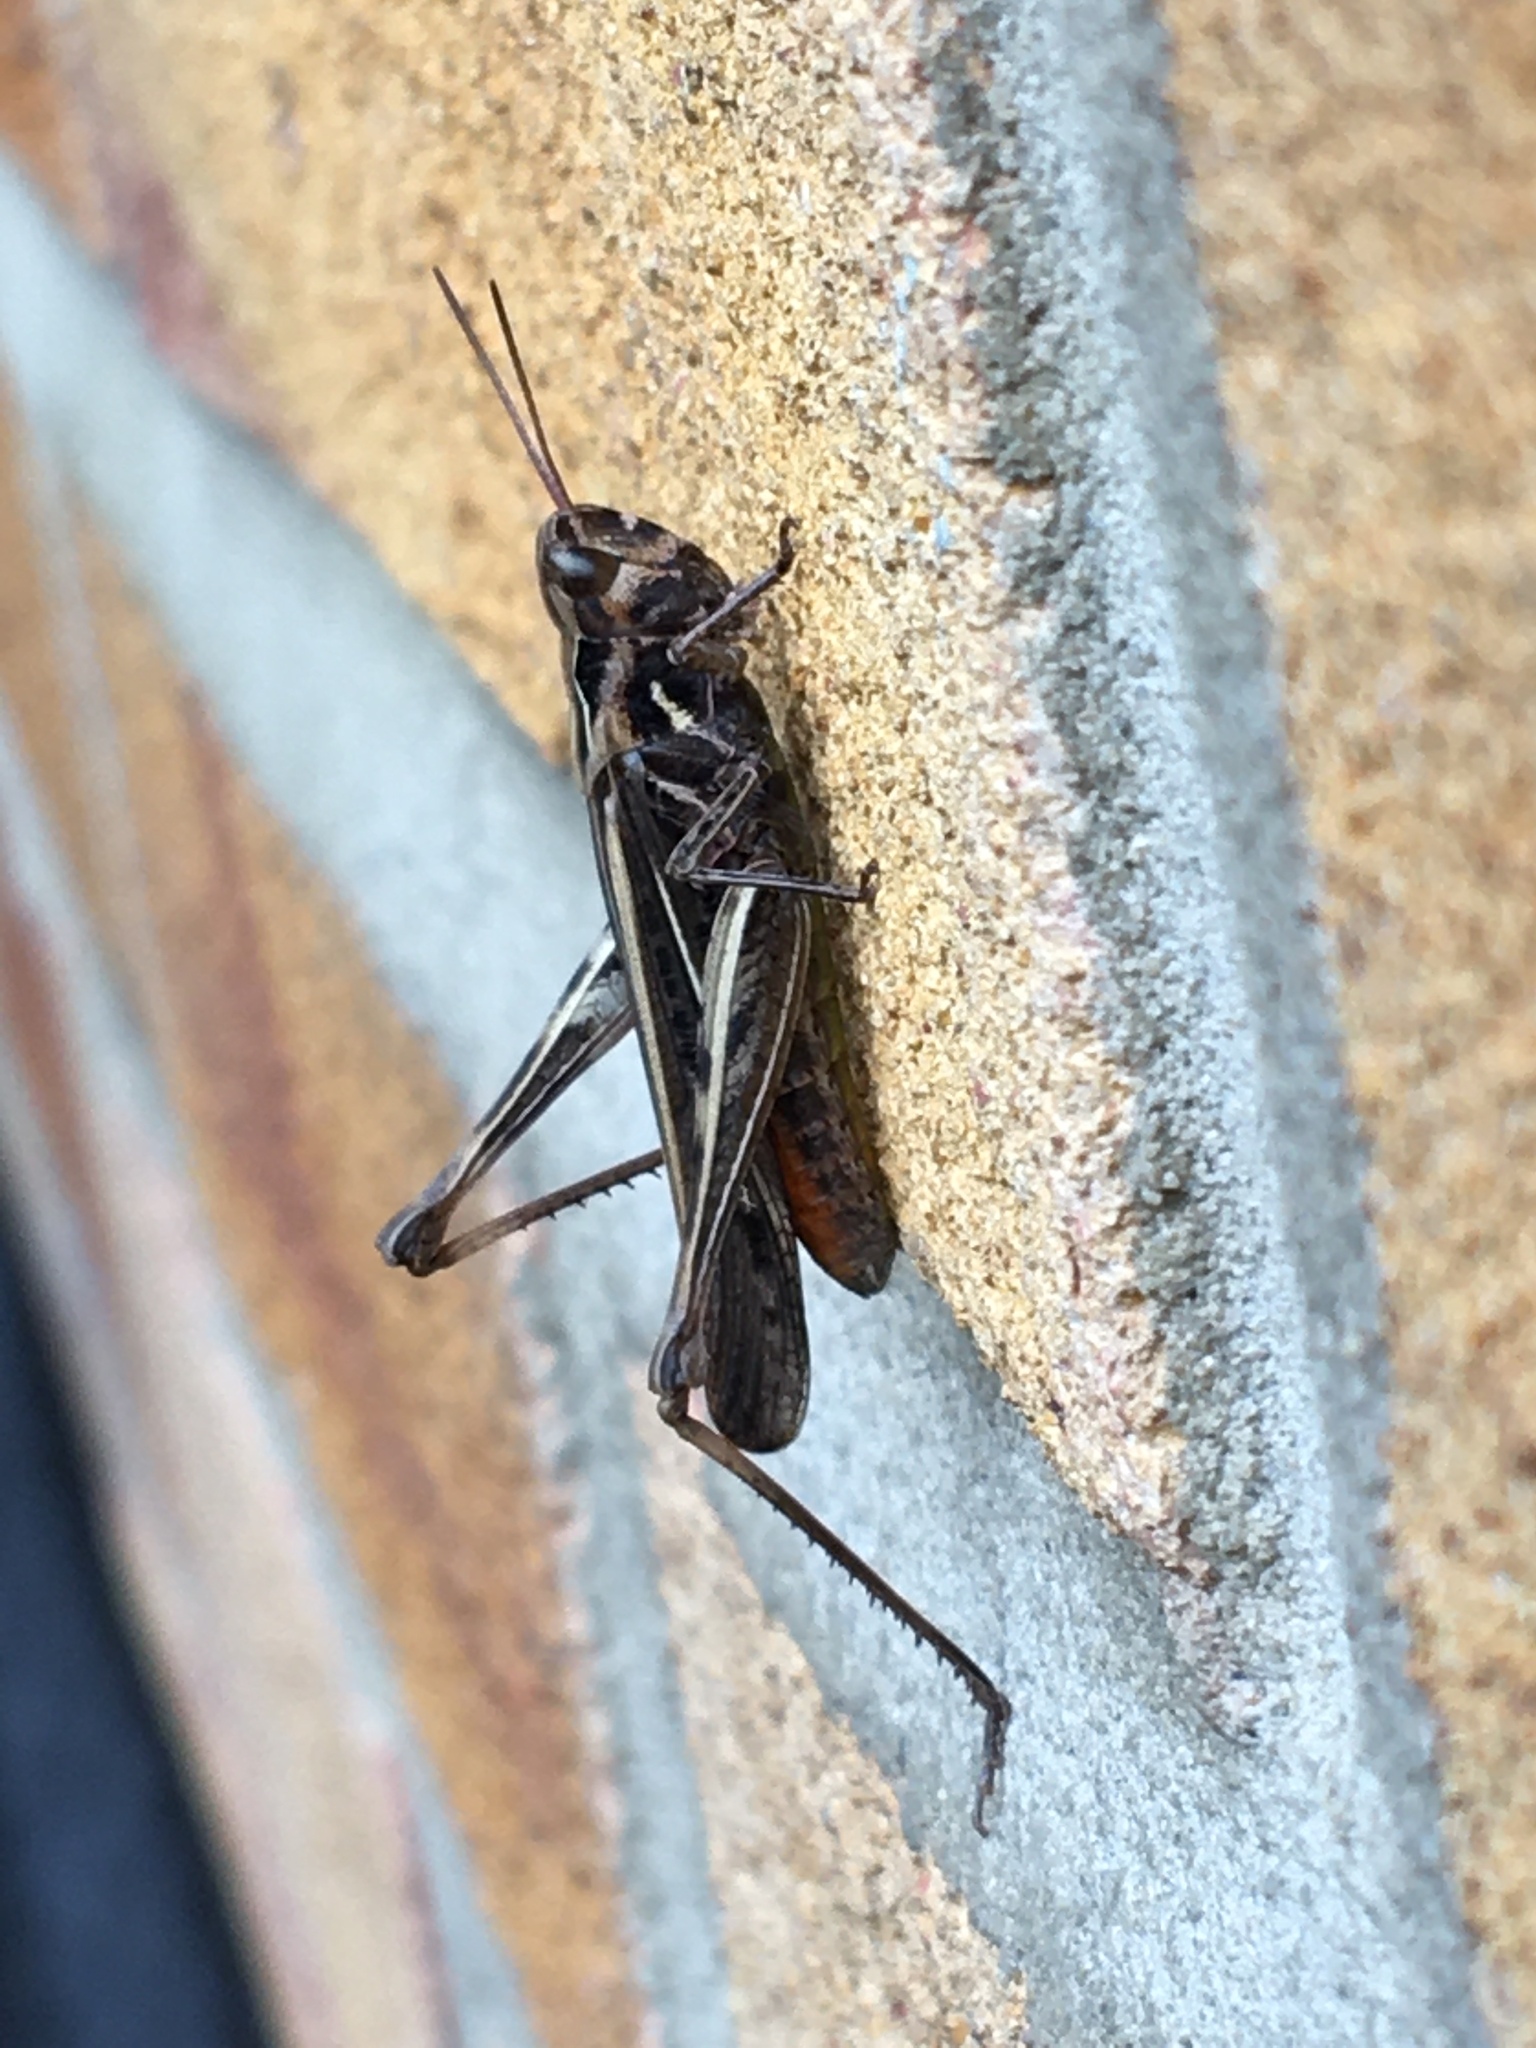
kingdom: Animalia
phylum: Arthropoda
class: Insecta
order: Orthoptera
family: Acrididae
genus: Chorthippus
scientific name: Chorthippus brunneus
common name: Field grasshopper
